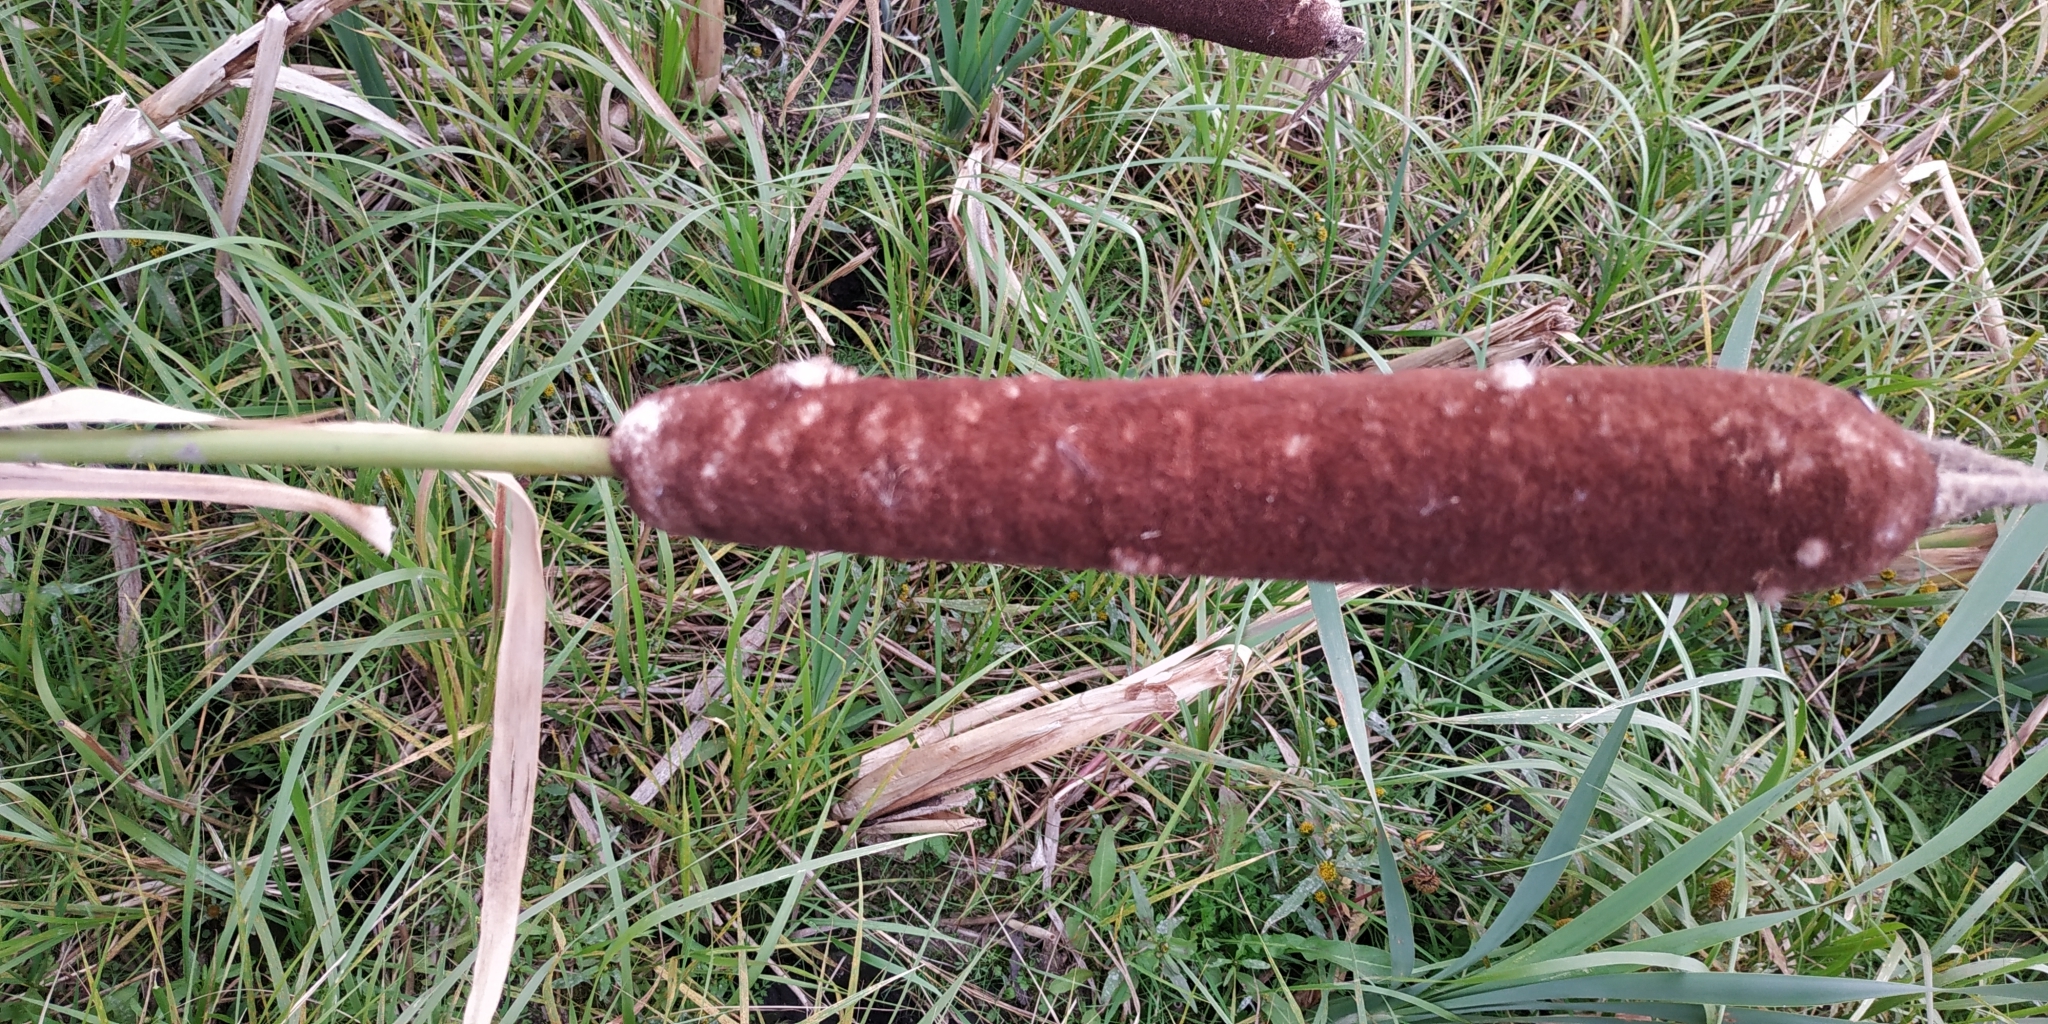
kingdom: Plantae
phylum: Tracheophyta
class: Liliopsida
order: Poales
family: Typhaceae
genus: Typha
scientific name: Typha latifolia
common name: Broadleaf cattail
